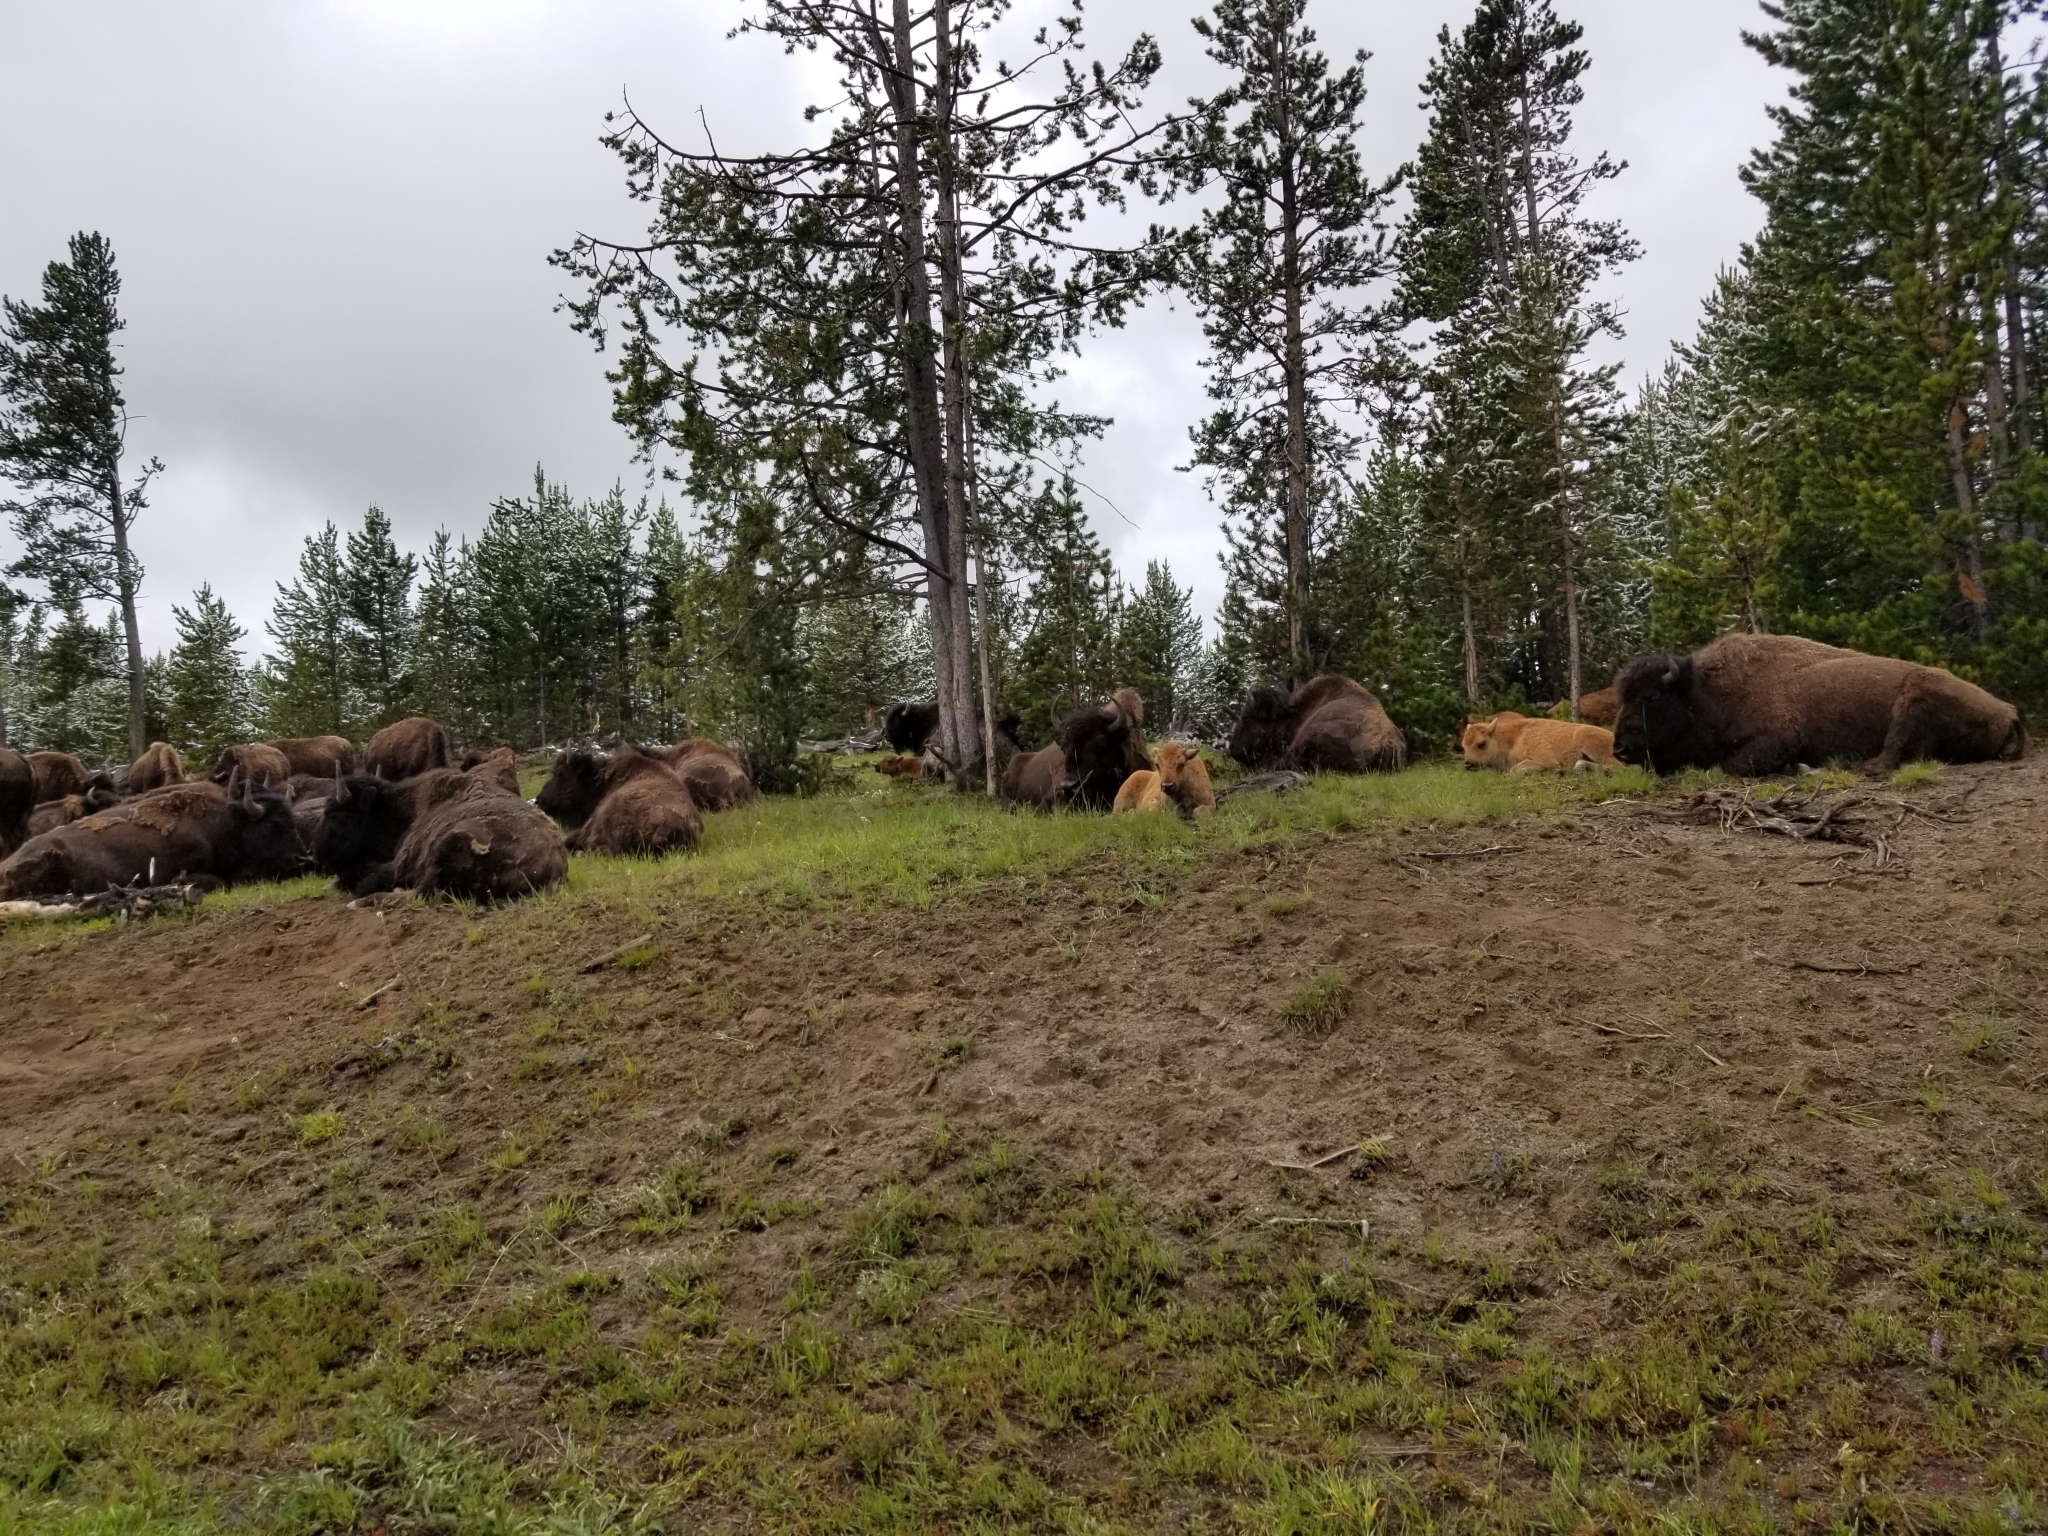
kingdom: Animalia
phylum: Chordata
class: Mammalia
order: Artiodactyla
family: Bovidae
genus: Bison
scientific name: Bison bison
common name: American bison
